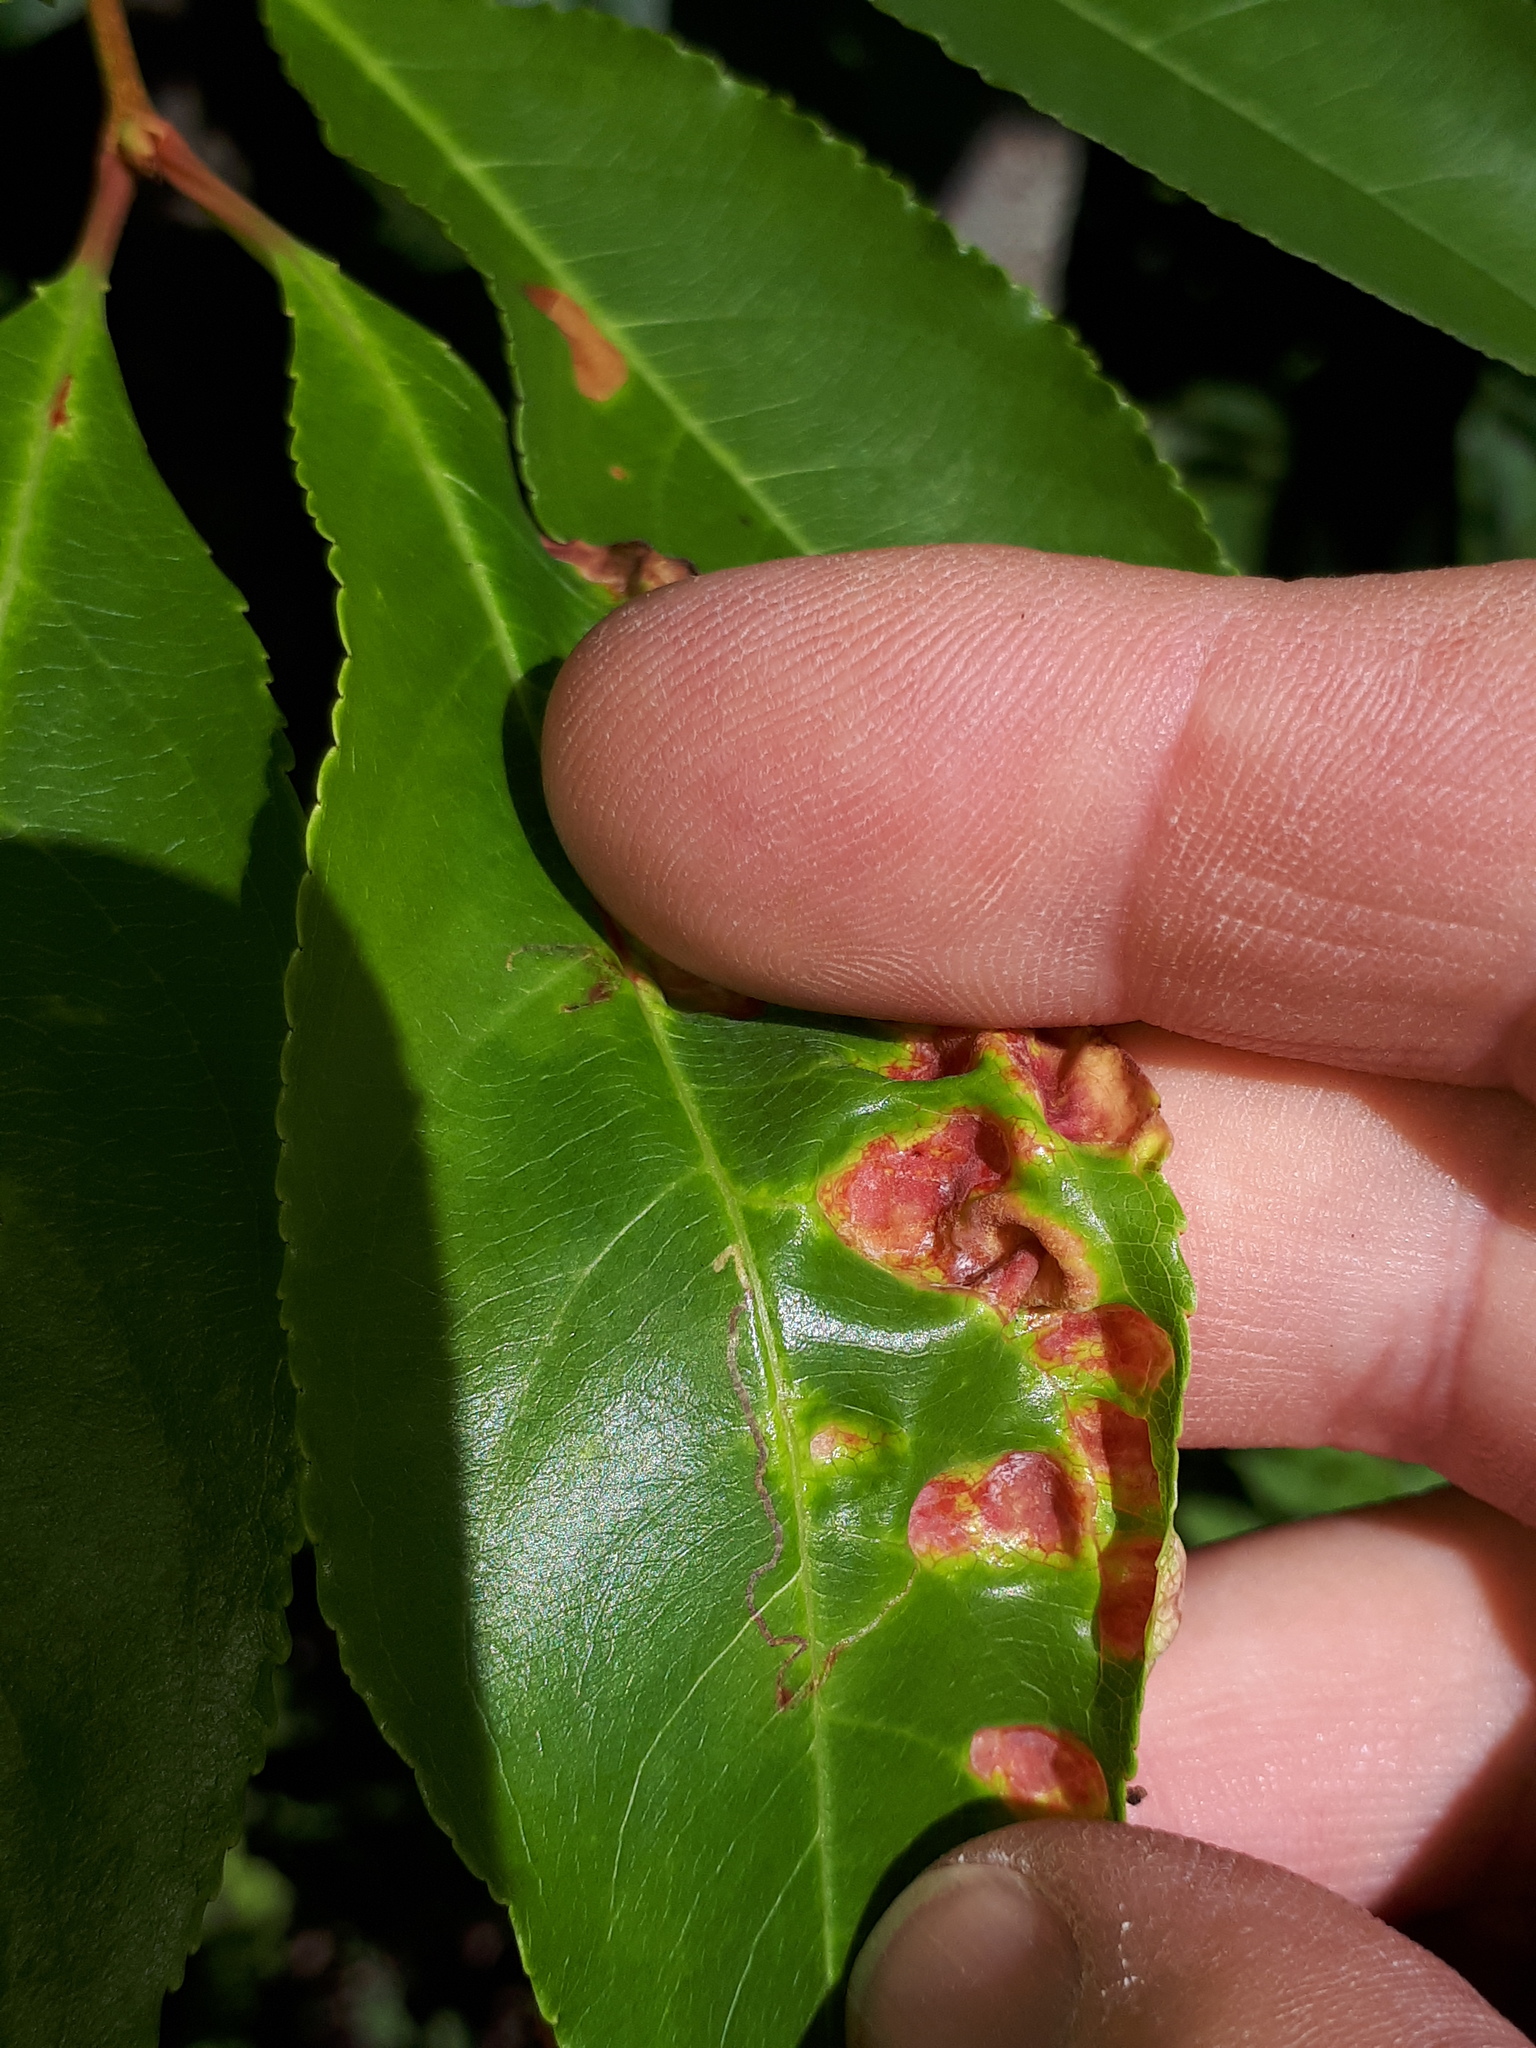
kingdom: Fungi
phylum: Ascomycota
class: Taphrinomycetes
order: Taphrinales
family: Taphrinaceae
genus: Taphrina
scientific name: Taphrina farlowii
